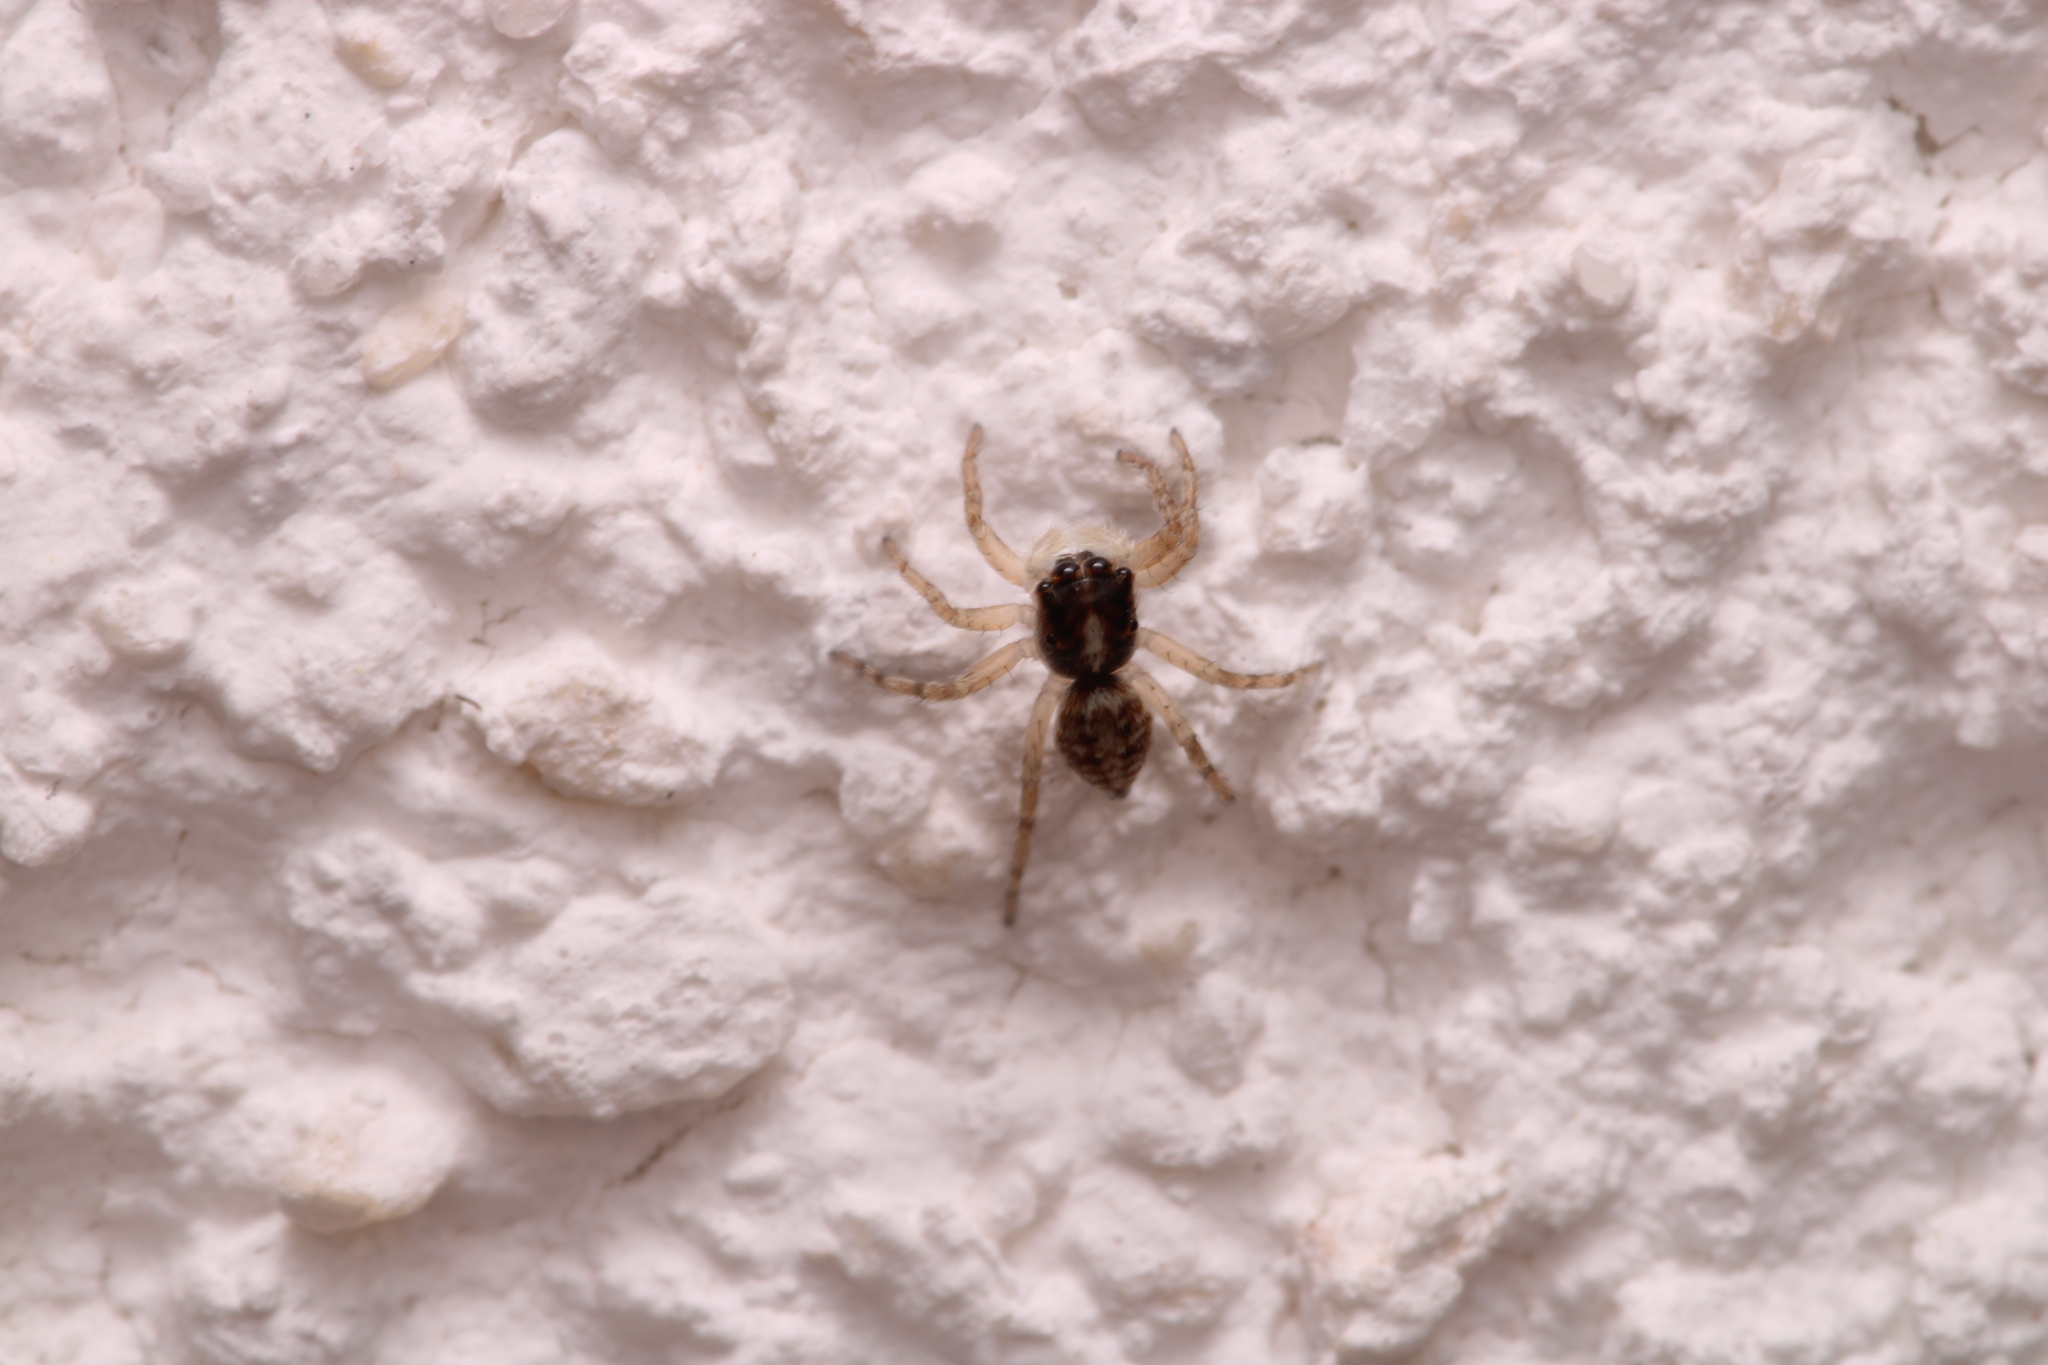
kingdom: Animalia
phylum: Arthropoda
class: Arachnida
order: Araneae
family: Salticidae
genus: Menemerus
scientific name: Menemerus semilimbatus
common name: Jumping spider
